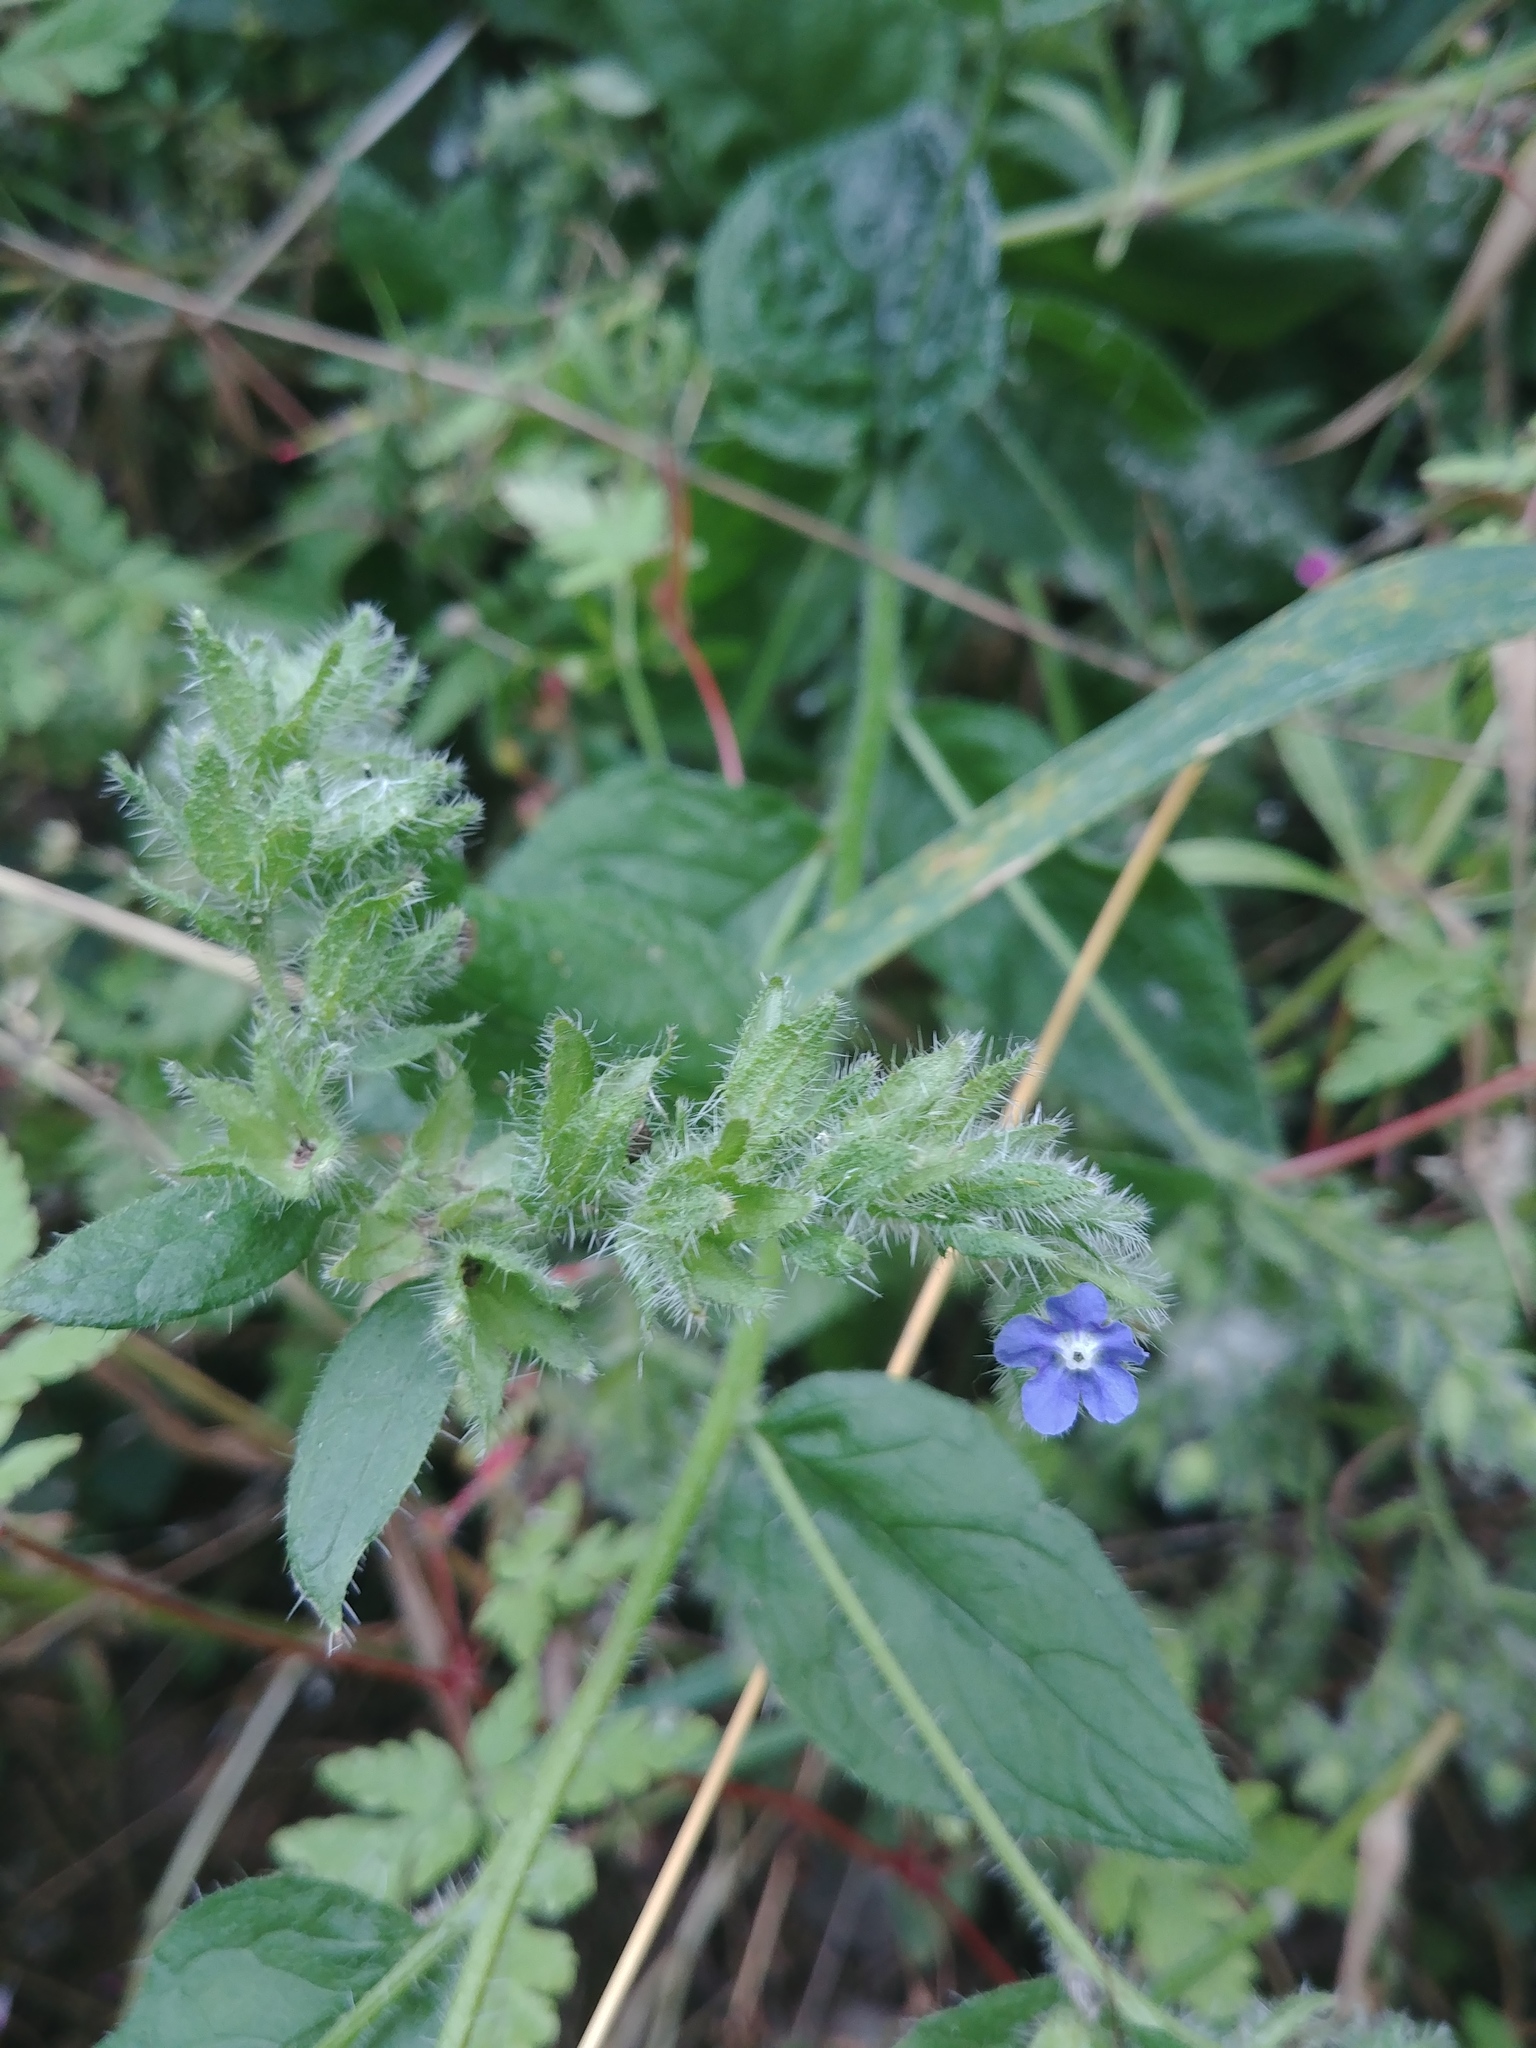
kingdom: Plantae
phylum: Tracheophyta
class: Magnoliopsida
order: Boraginales
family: Boraginaceae
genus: Pentaglottis
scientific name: Pentaglottis sempervirens
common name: Green alkanet
